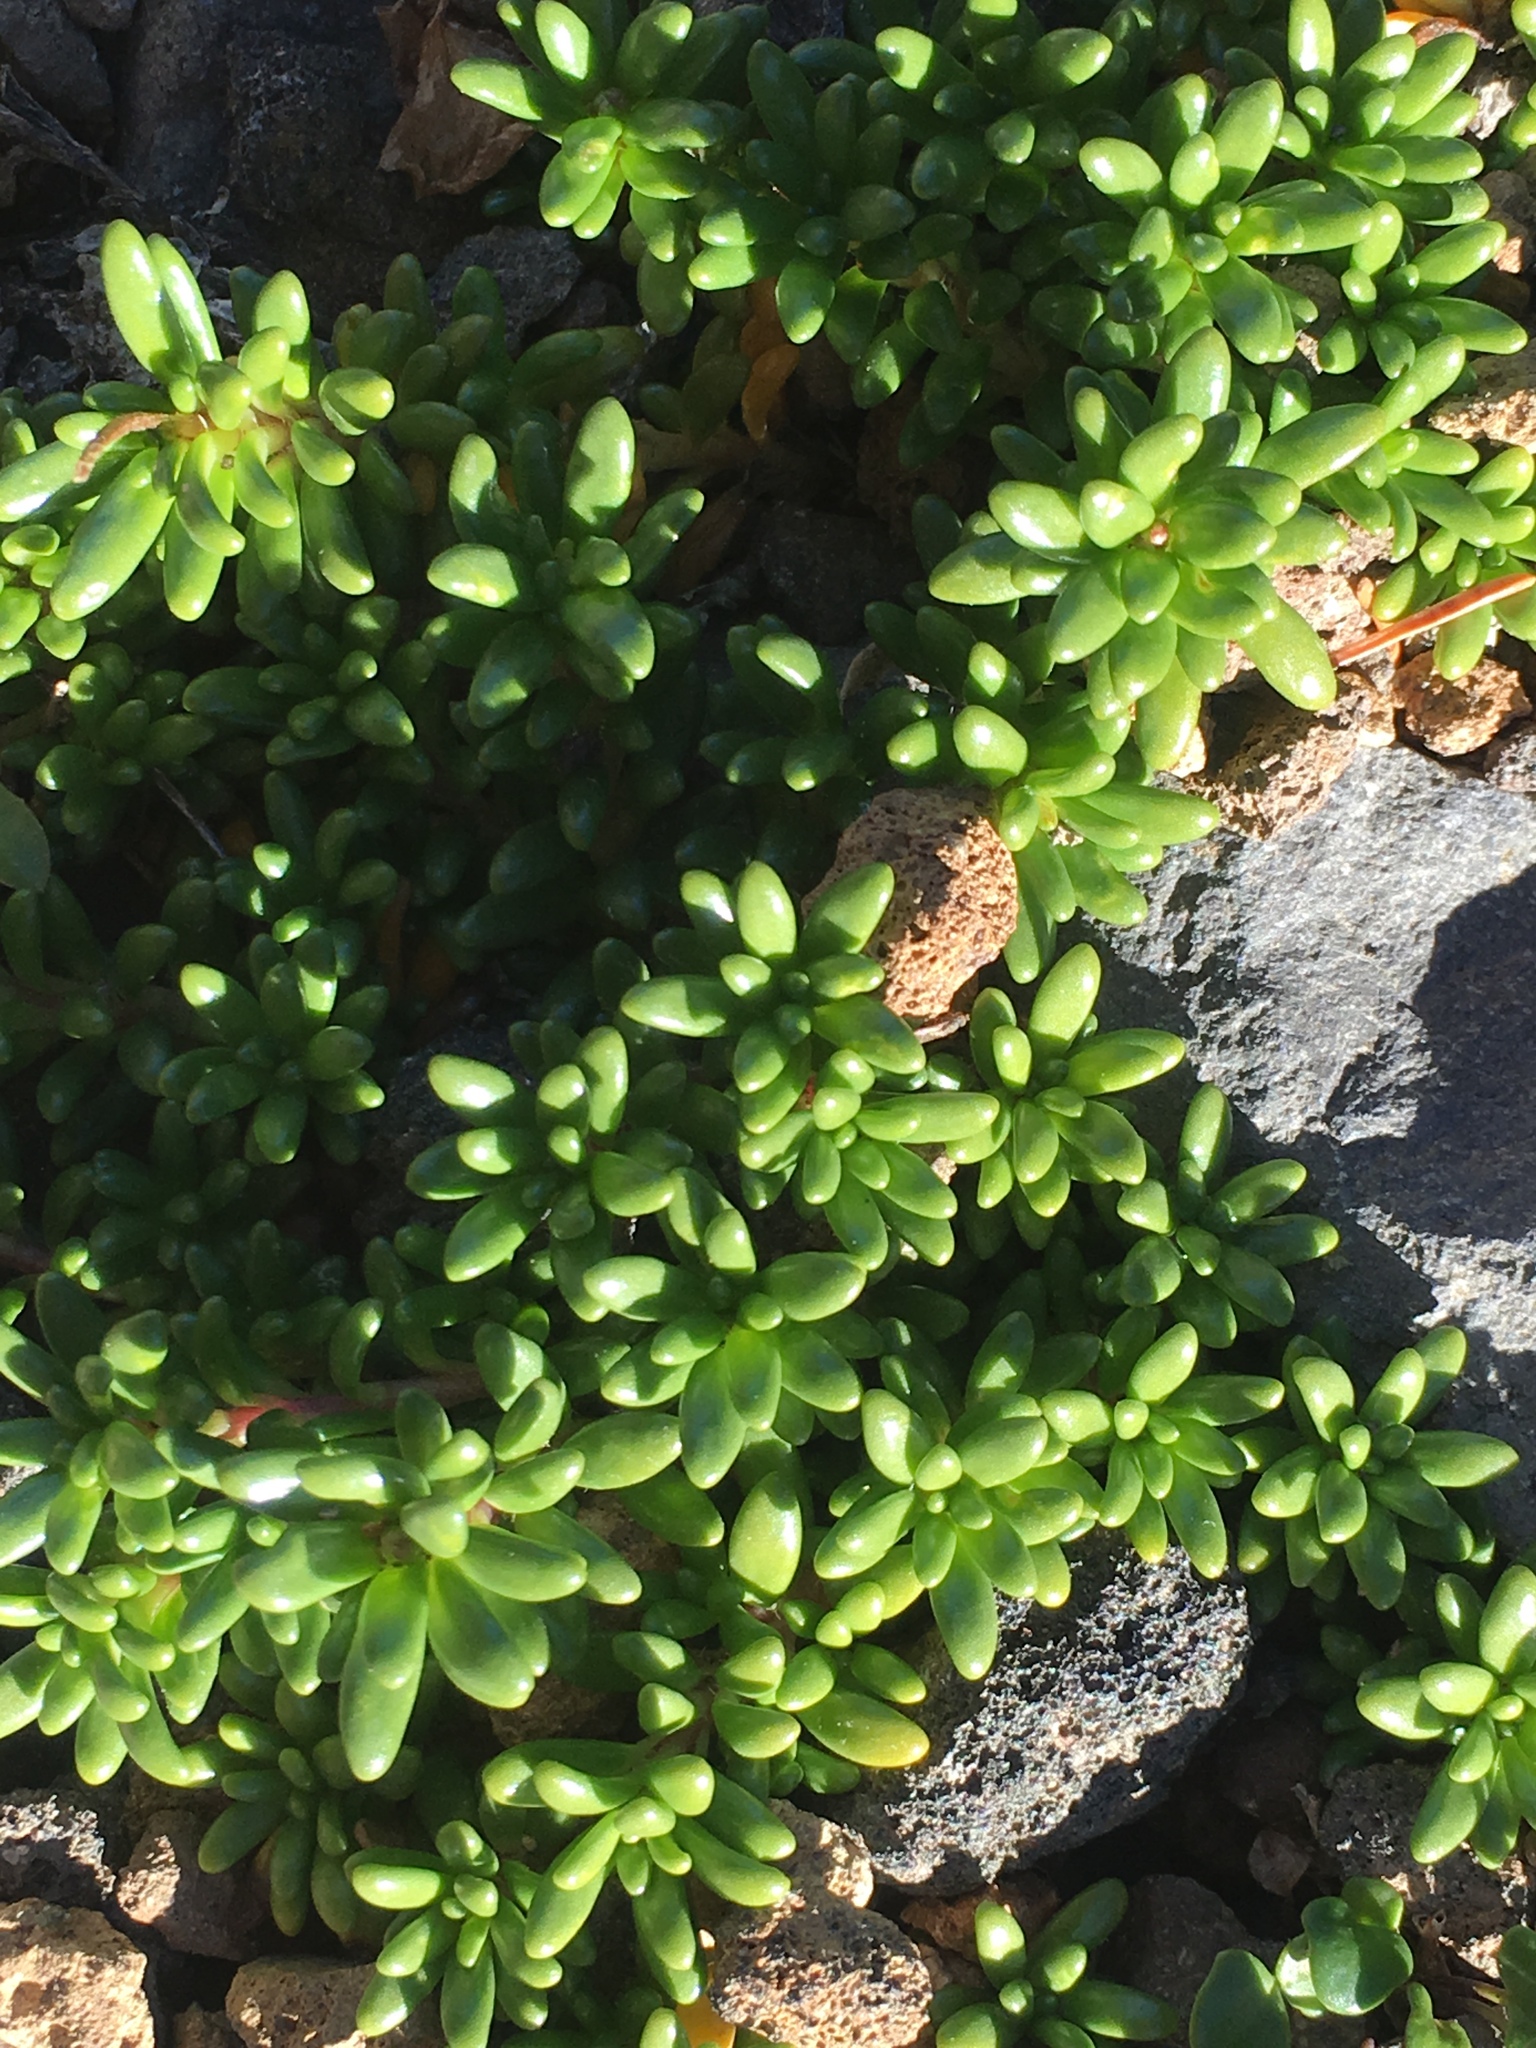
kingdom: Plantae
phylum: Tracheophyta
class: Magnoliopsida
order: Saxifragales
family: Saxifragaceae
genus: Micranthes
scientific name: Micranthes tolmiei
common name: Tolmie's saxifrage
